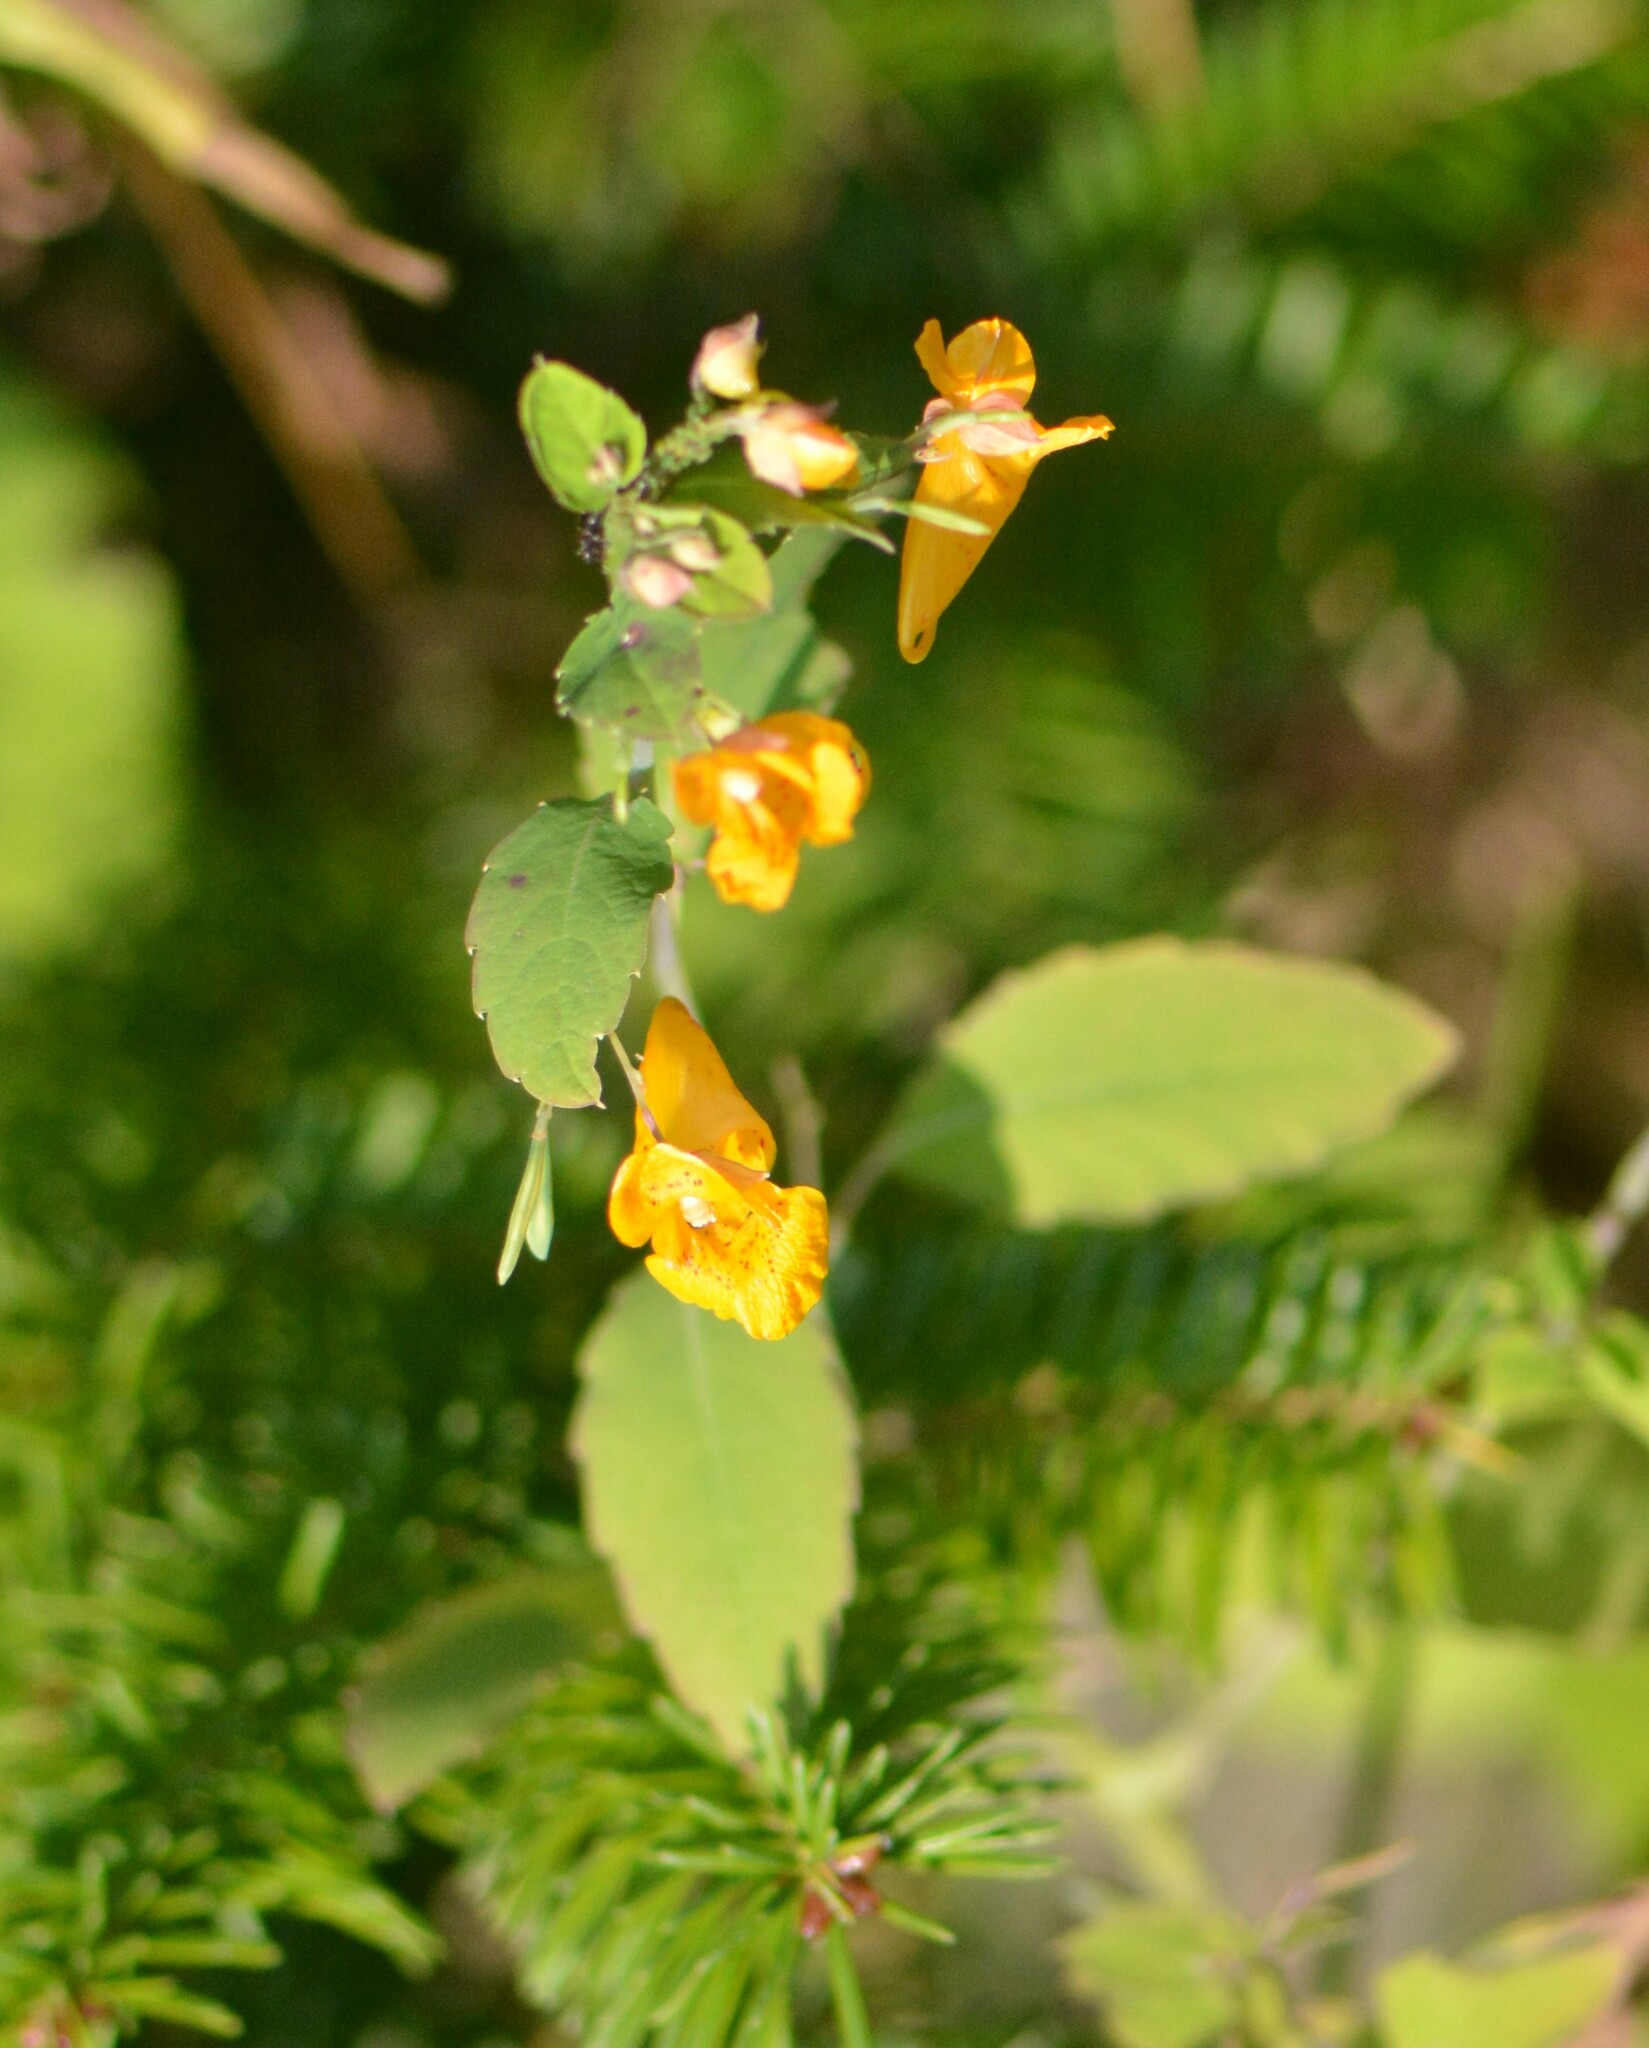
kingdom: Plantae
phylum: Tracheophyta
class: Magnoliopsida
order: Ericales
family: Balsaminaceae
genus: Impatiens
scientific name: Impatiens capensis
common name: Orange balsam
